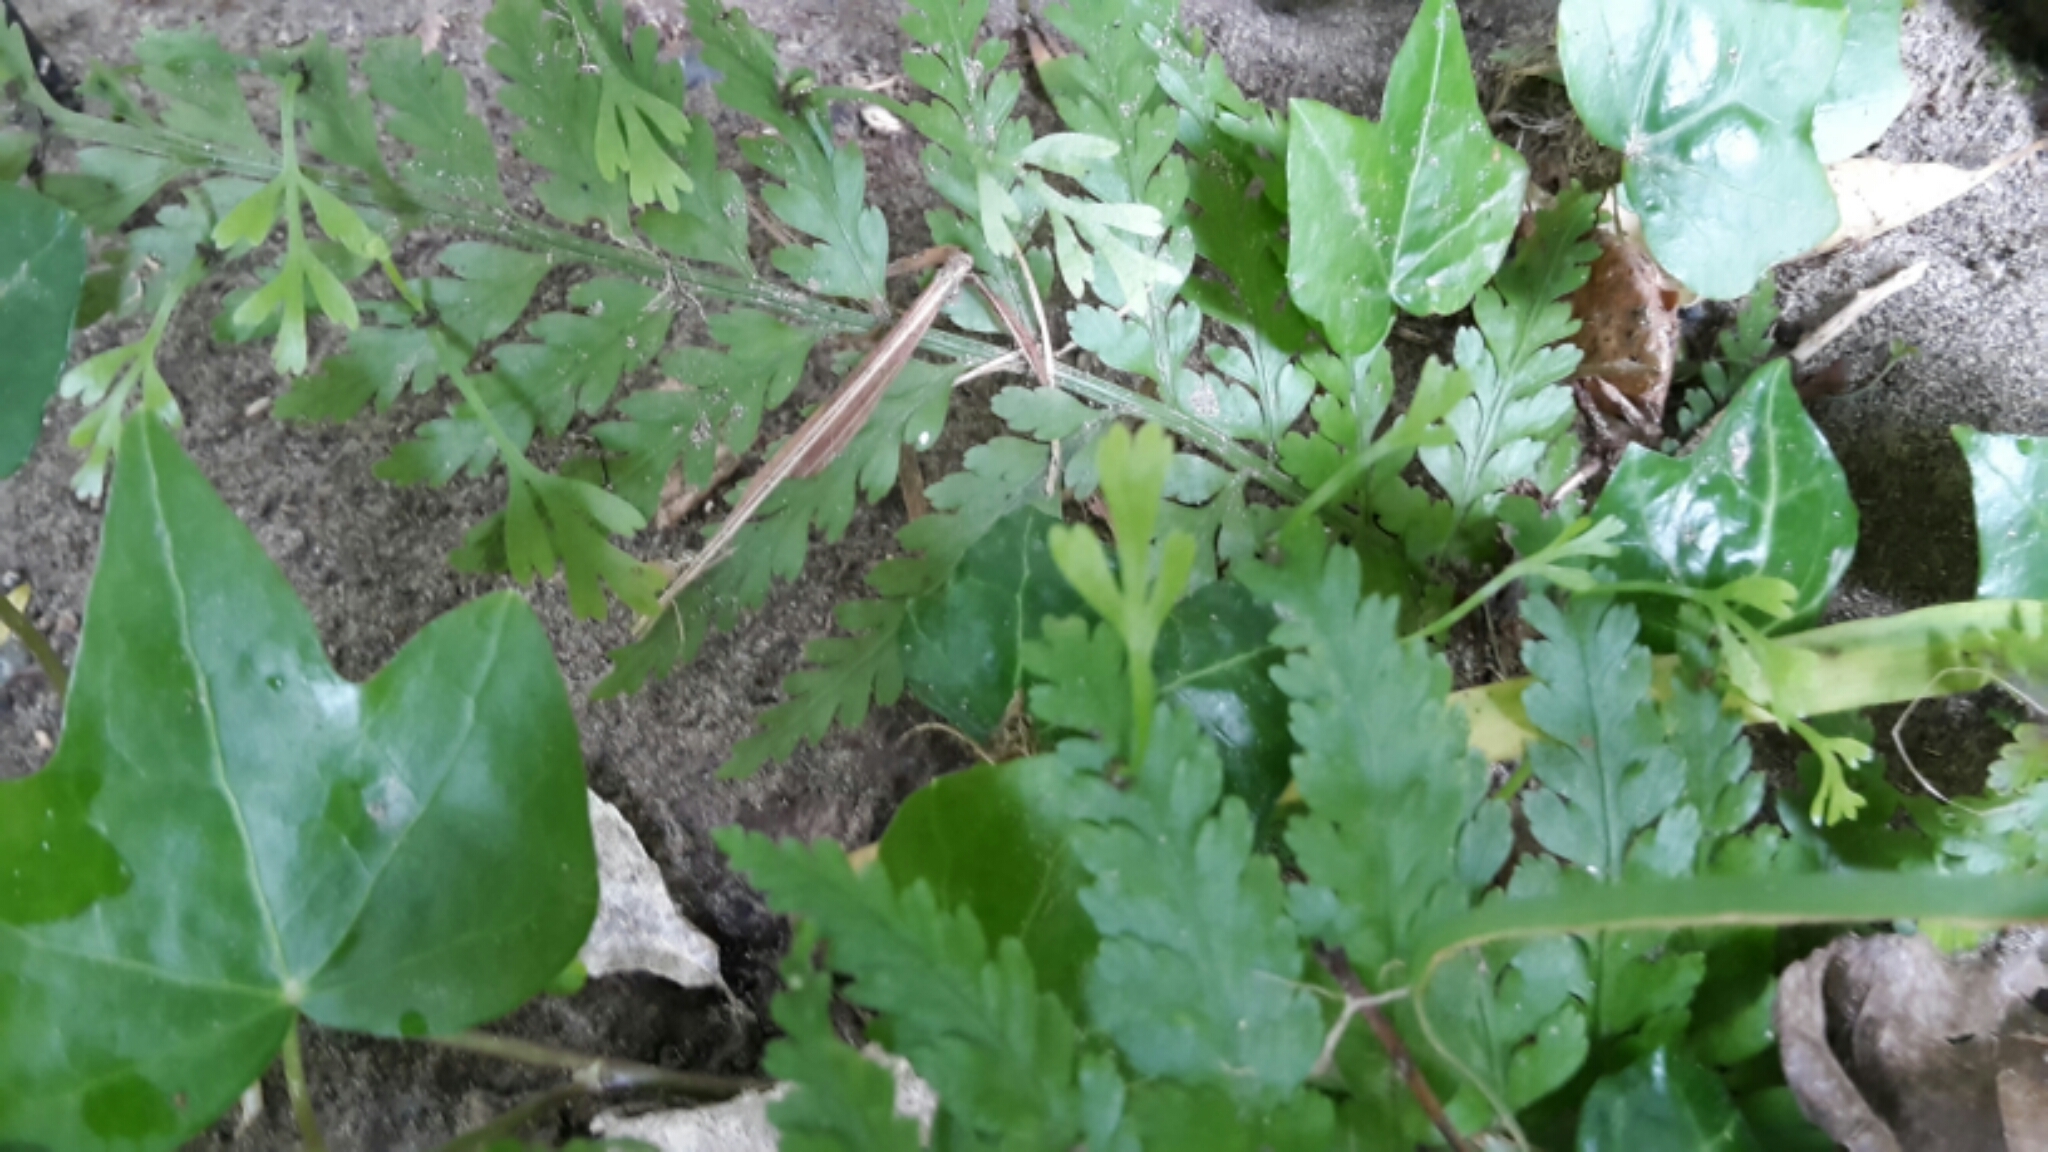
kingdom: Plantae
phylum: Tracheophyta
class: Polypodiopsida
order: Polypodiales
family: Aspleniaceae
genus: Asplenium
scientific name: Asplenium bulbiferum
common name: Mother fern
